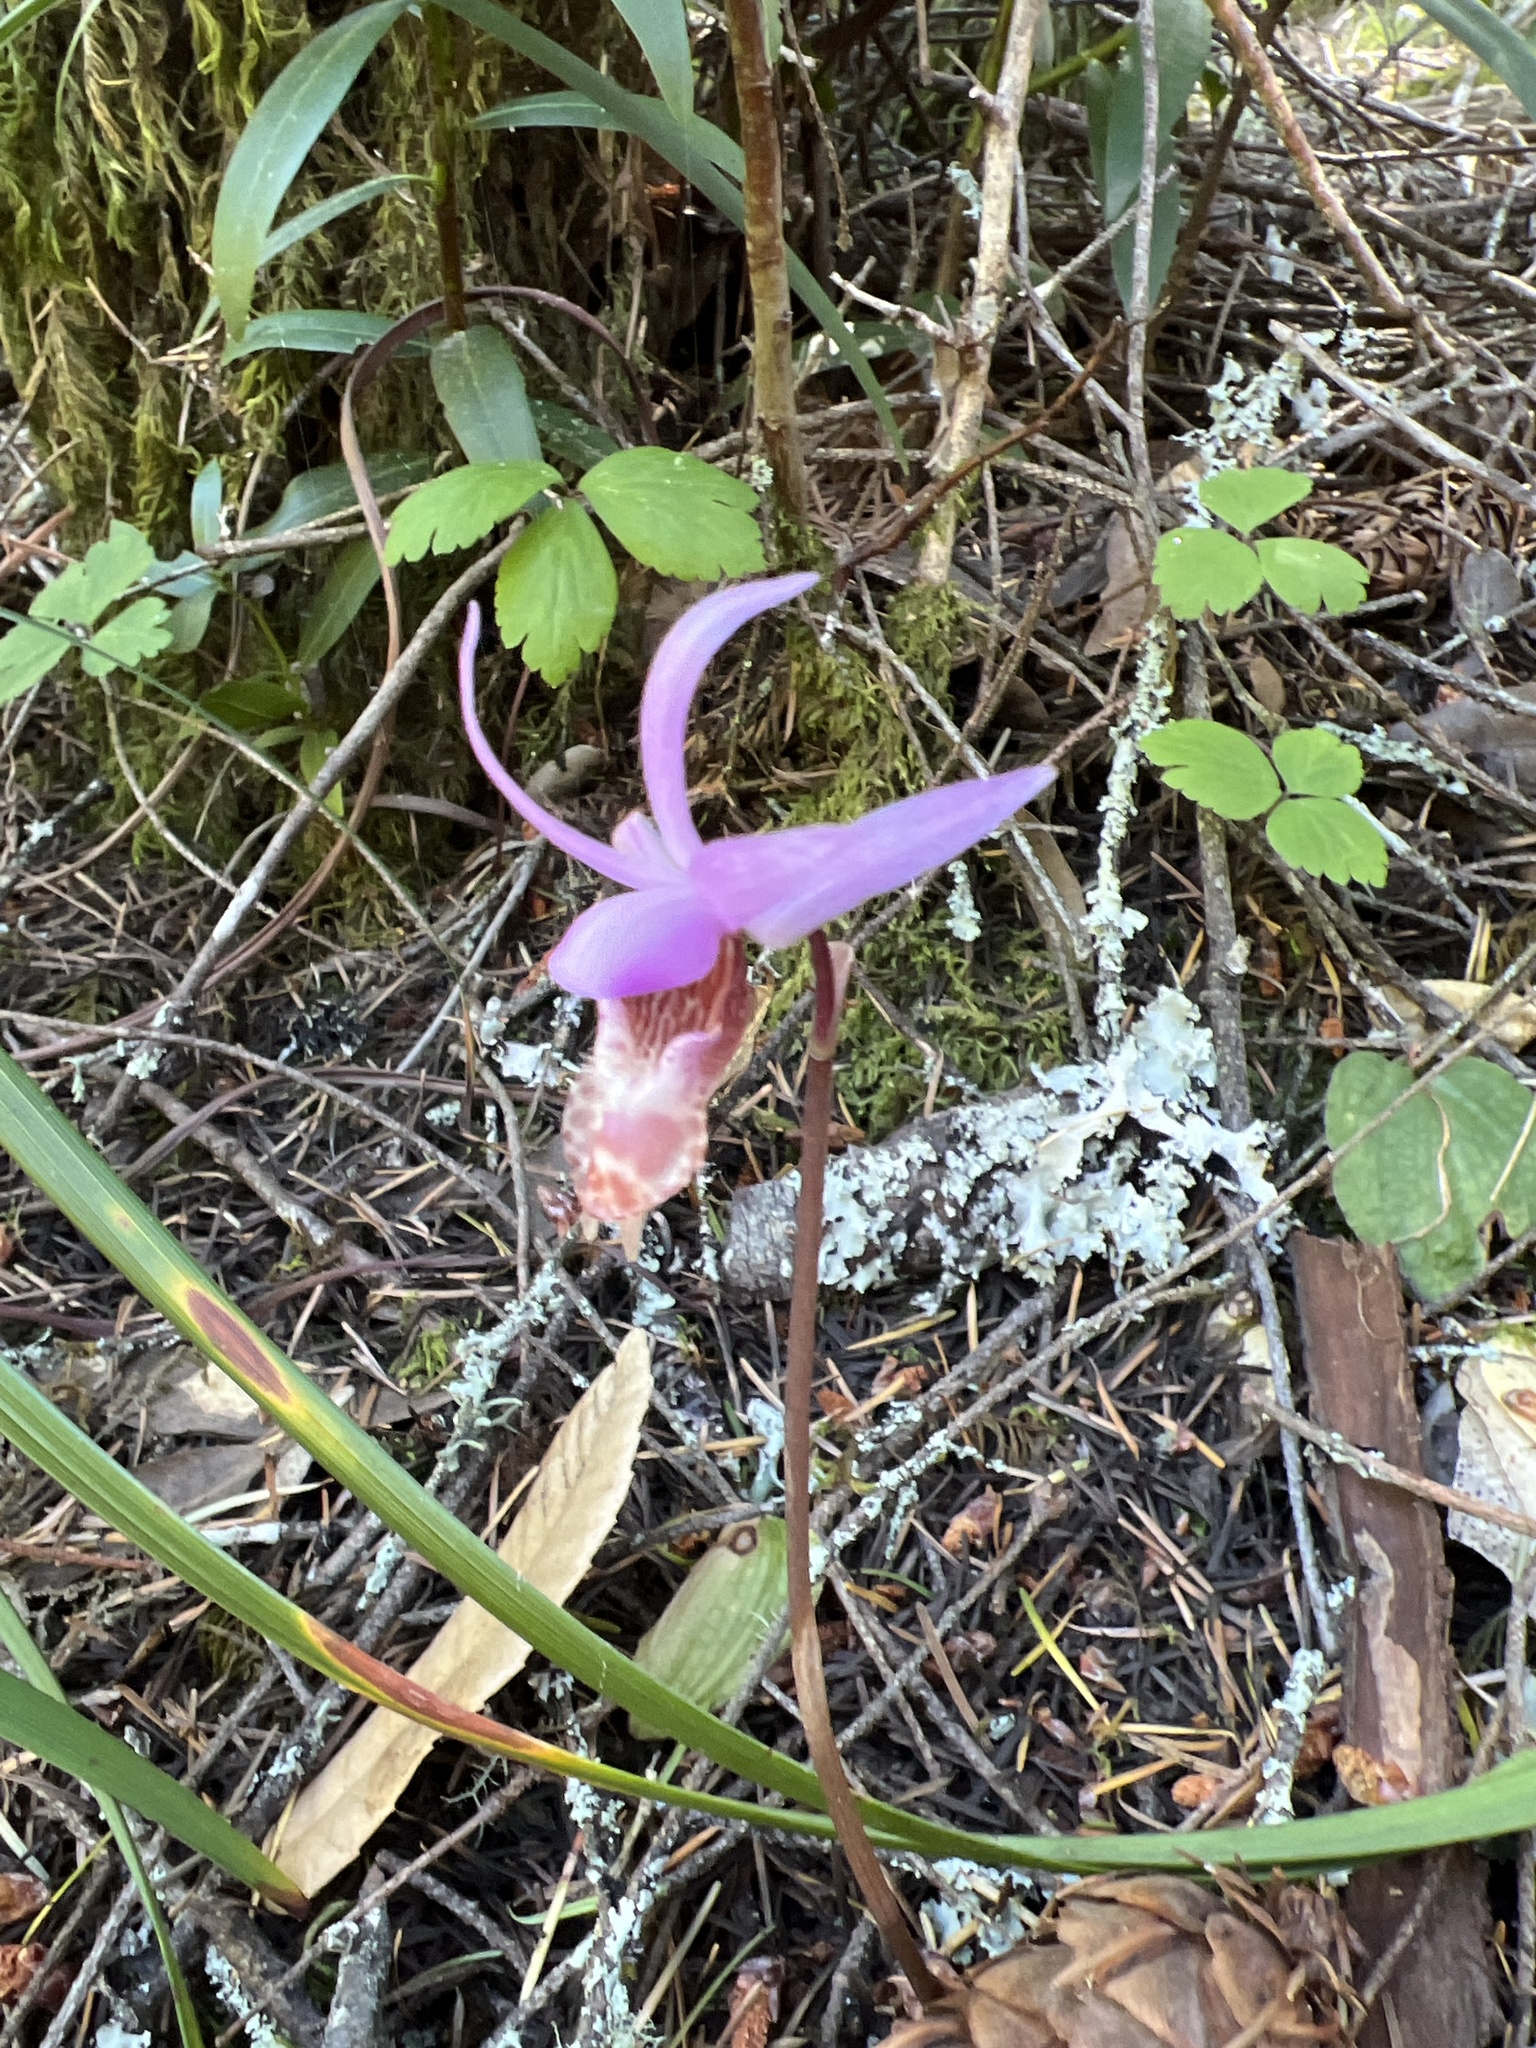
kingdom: Plantae
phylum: Tracheophyta
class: Liliopsida
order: Asparagales
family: Orchidaceae
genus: Calypso
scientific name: Calypso bulbosa
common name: Calypso
